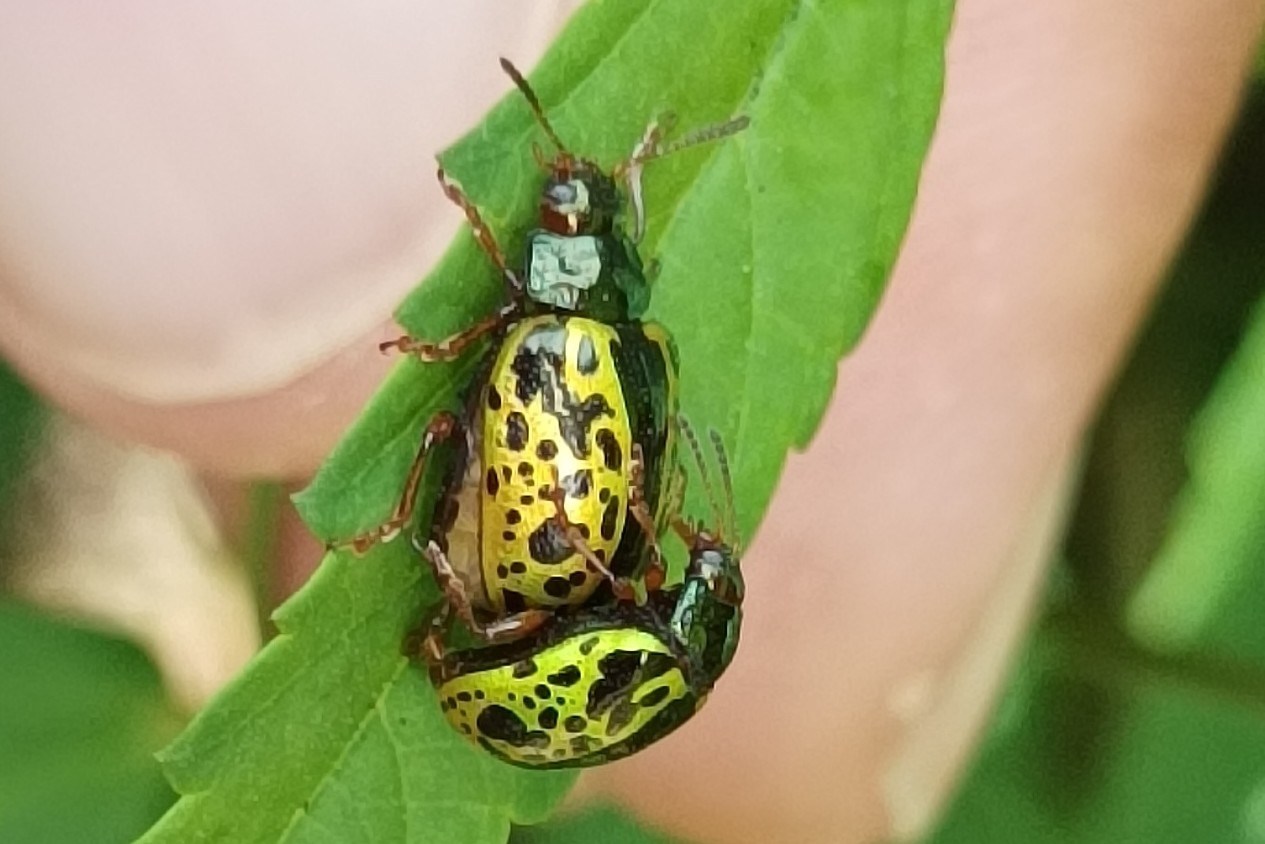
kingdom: Animalia
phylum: Arthropoda
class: Insecta
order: Coleoptera
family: Chrysomelidae
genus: Calligrapha
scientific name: Calligrapha pantherina
